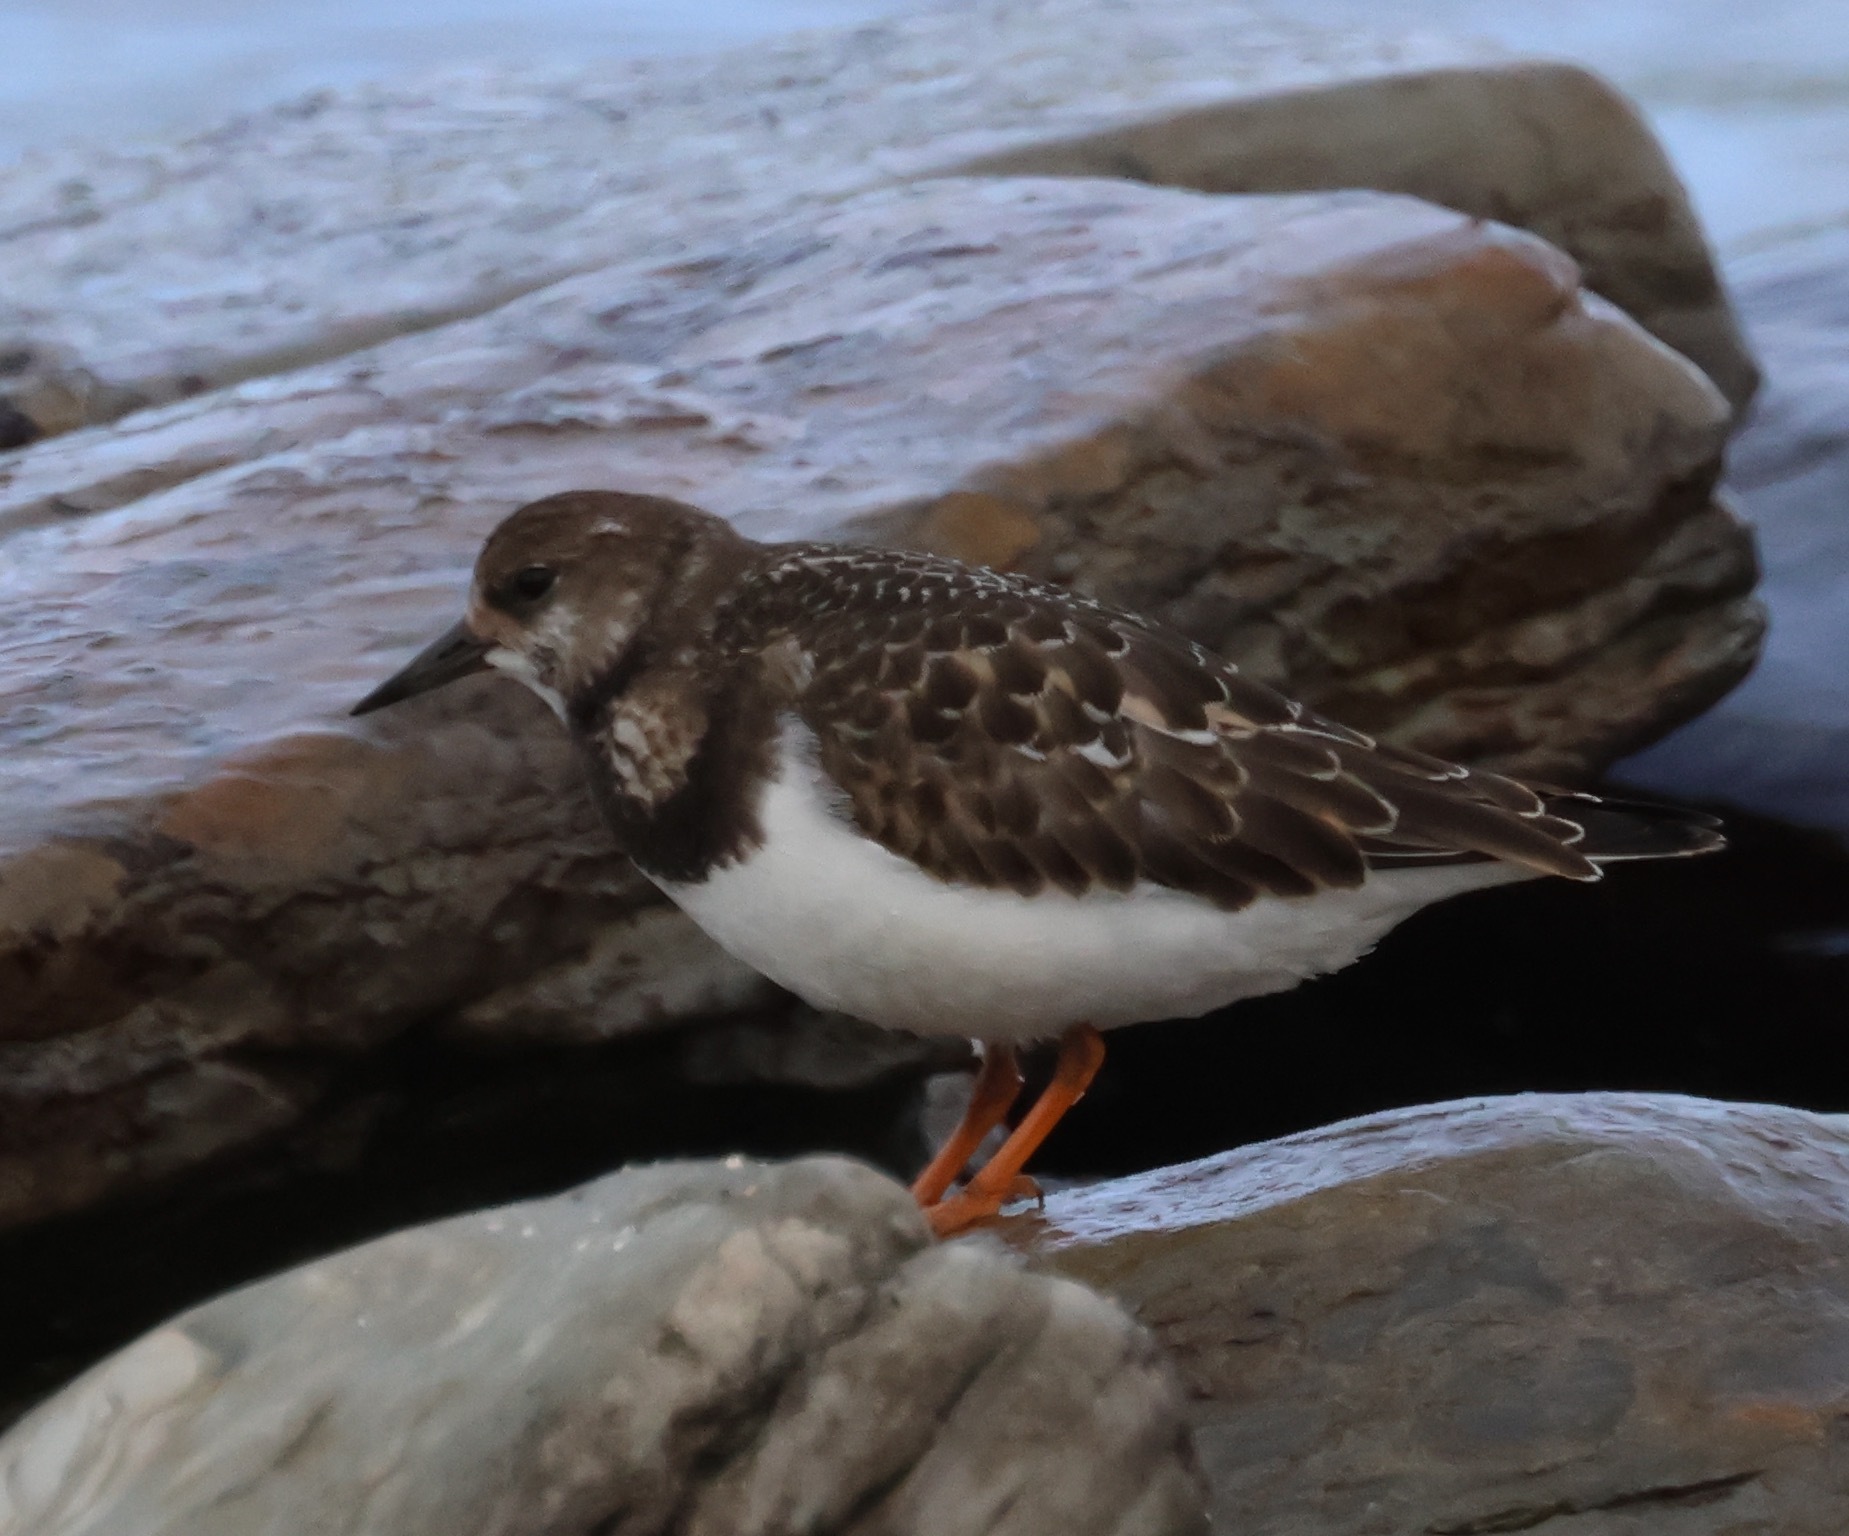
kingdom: Animalia
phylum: Chordata
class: Aves
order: Charadriiformes
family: Scolopacidae
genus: Arenaria
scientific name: Arenaria interpres
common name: Ruddy turnstone
